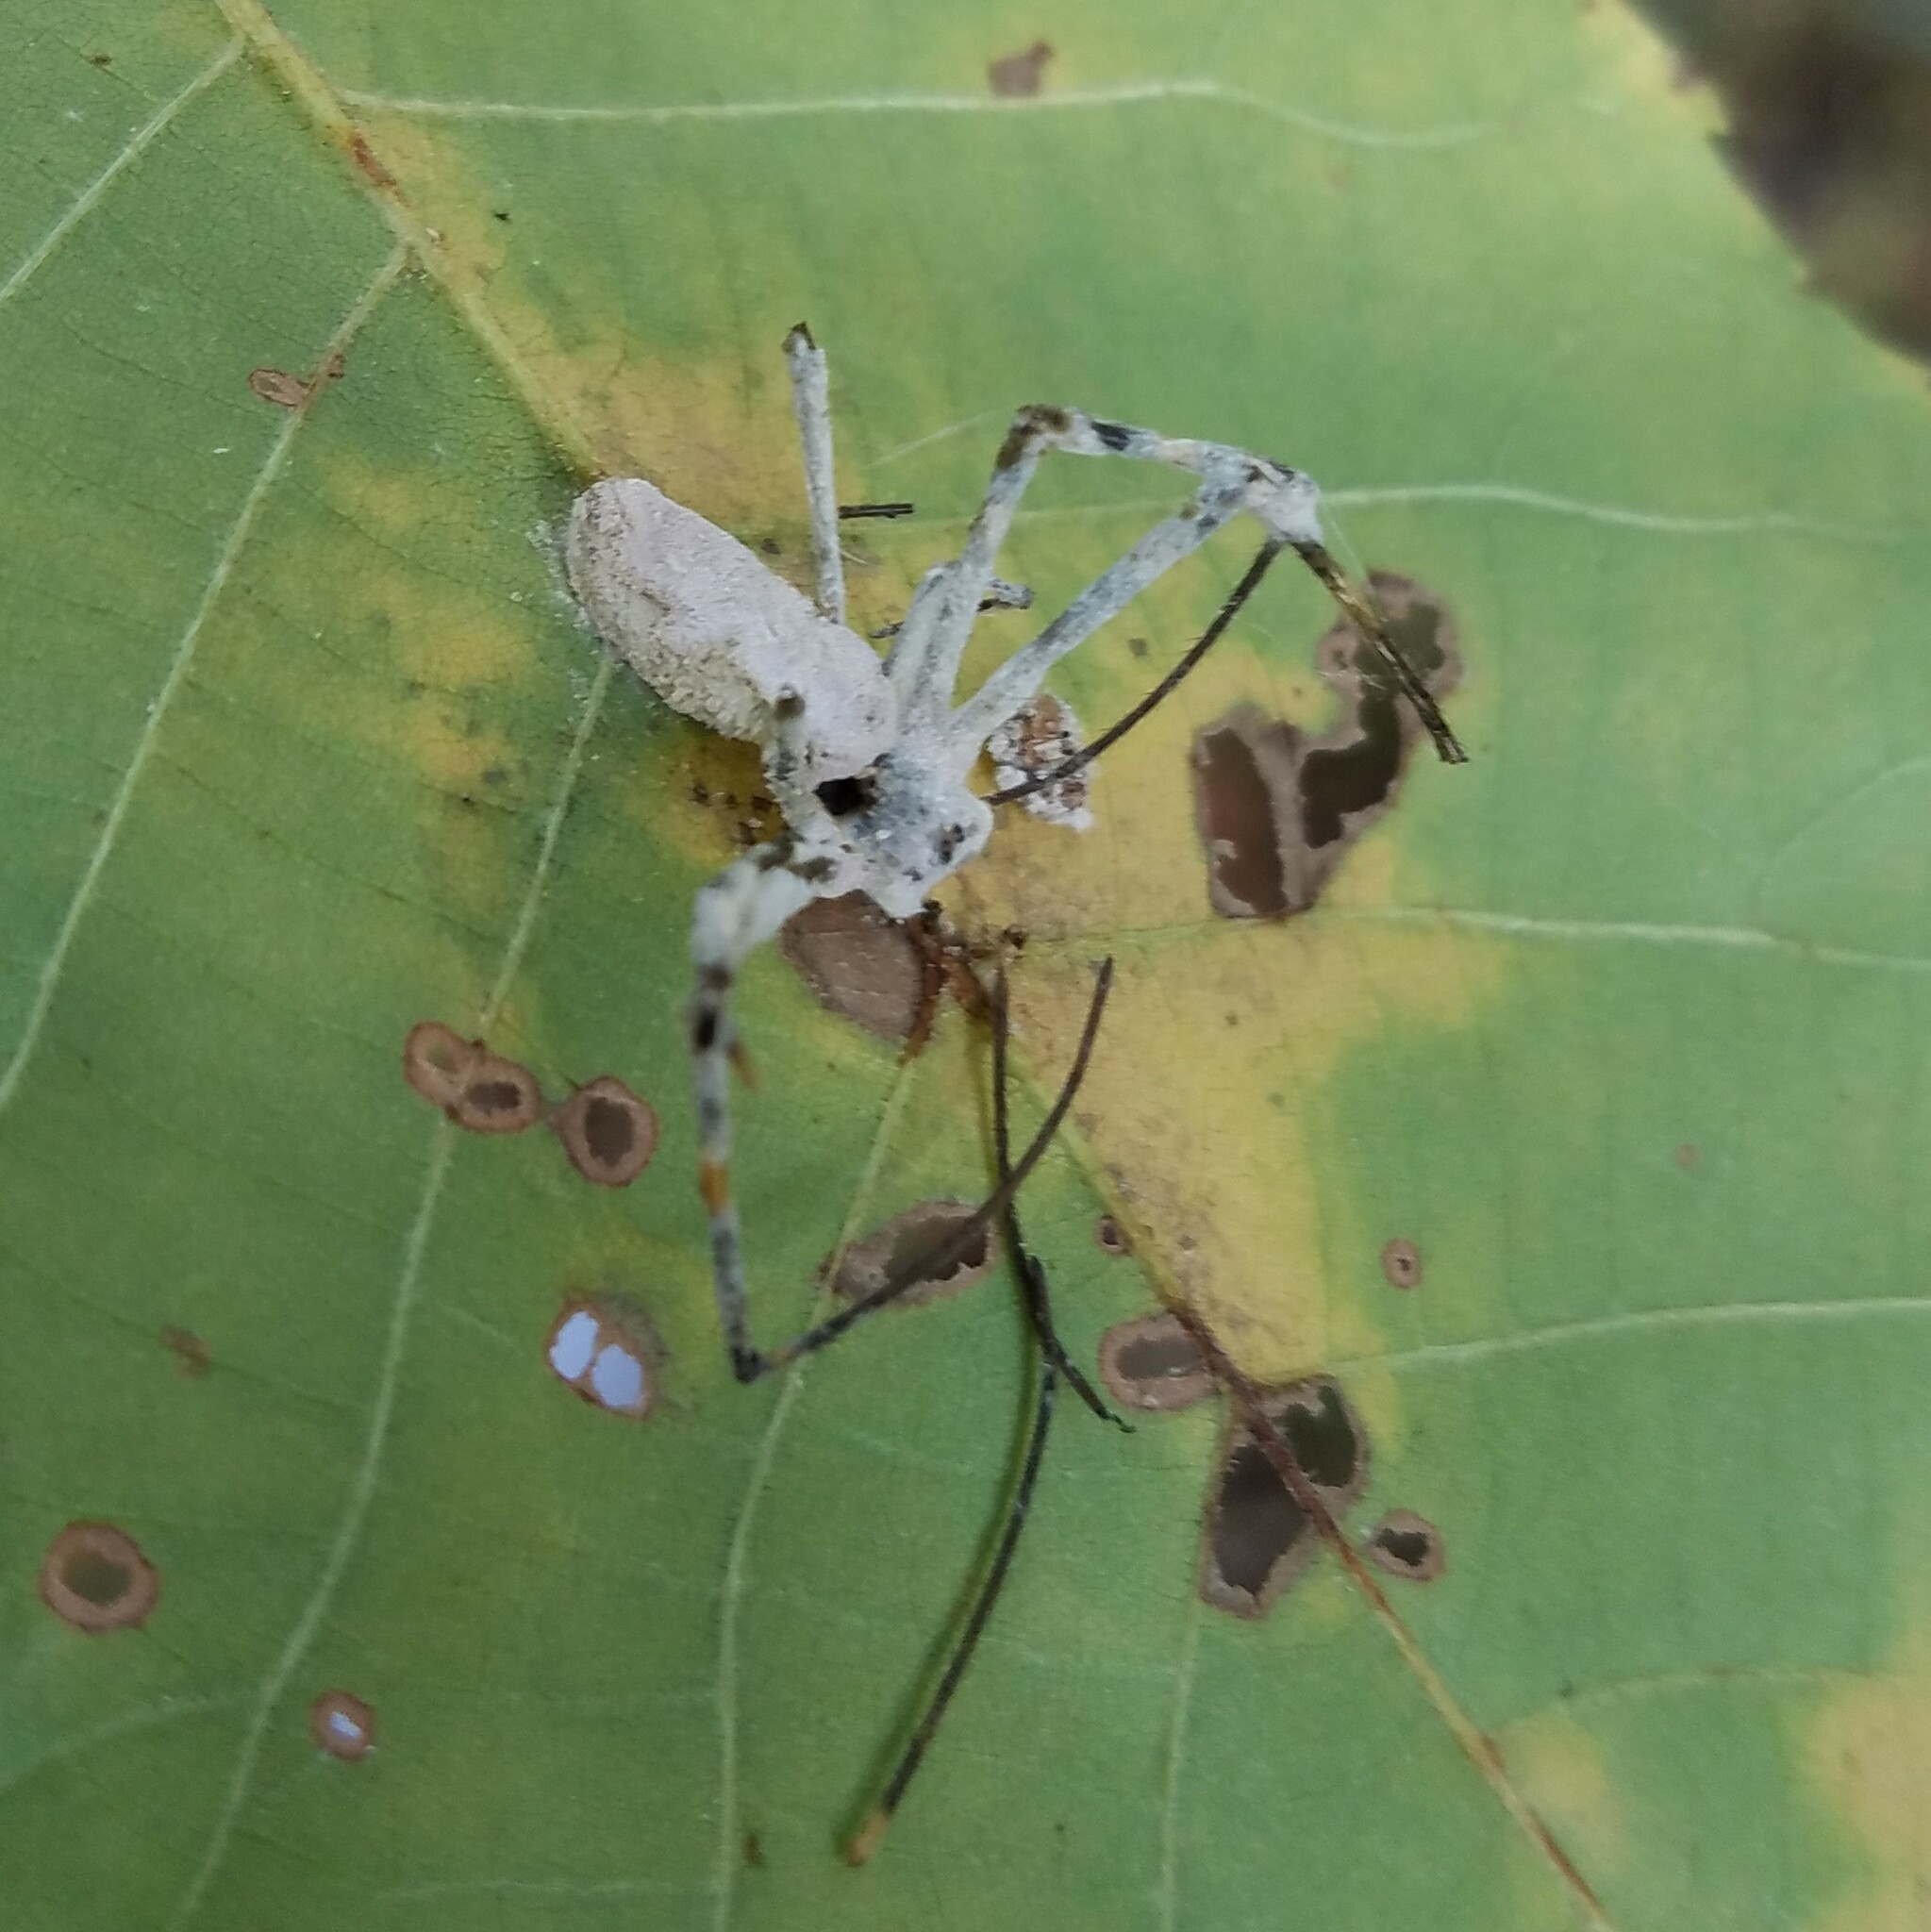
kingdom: Fungi
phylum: Ascomycota
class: Sordariomycetes
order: Hypocreales
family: Ophiocordycipitaceae
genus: Purpureocillium
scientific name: Purpureocillium atypicola
